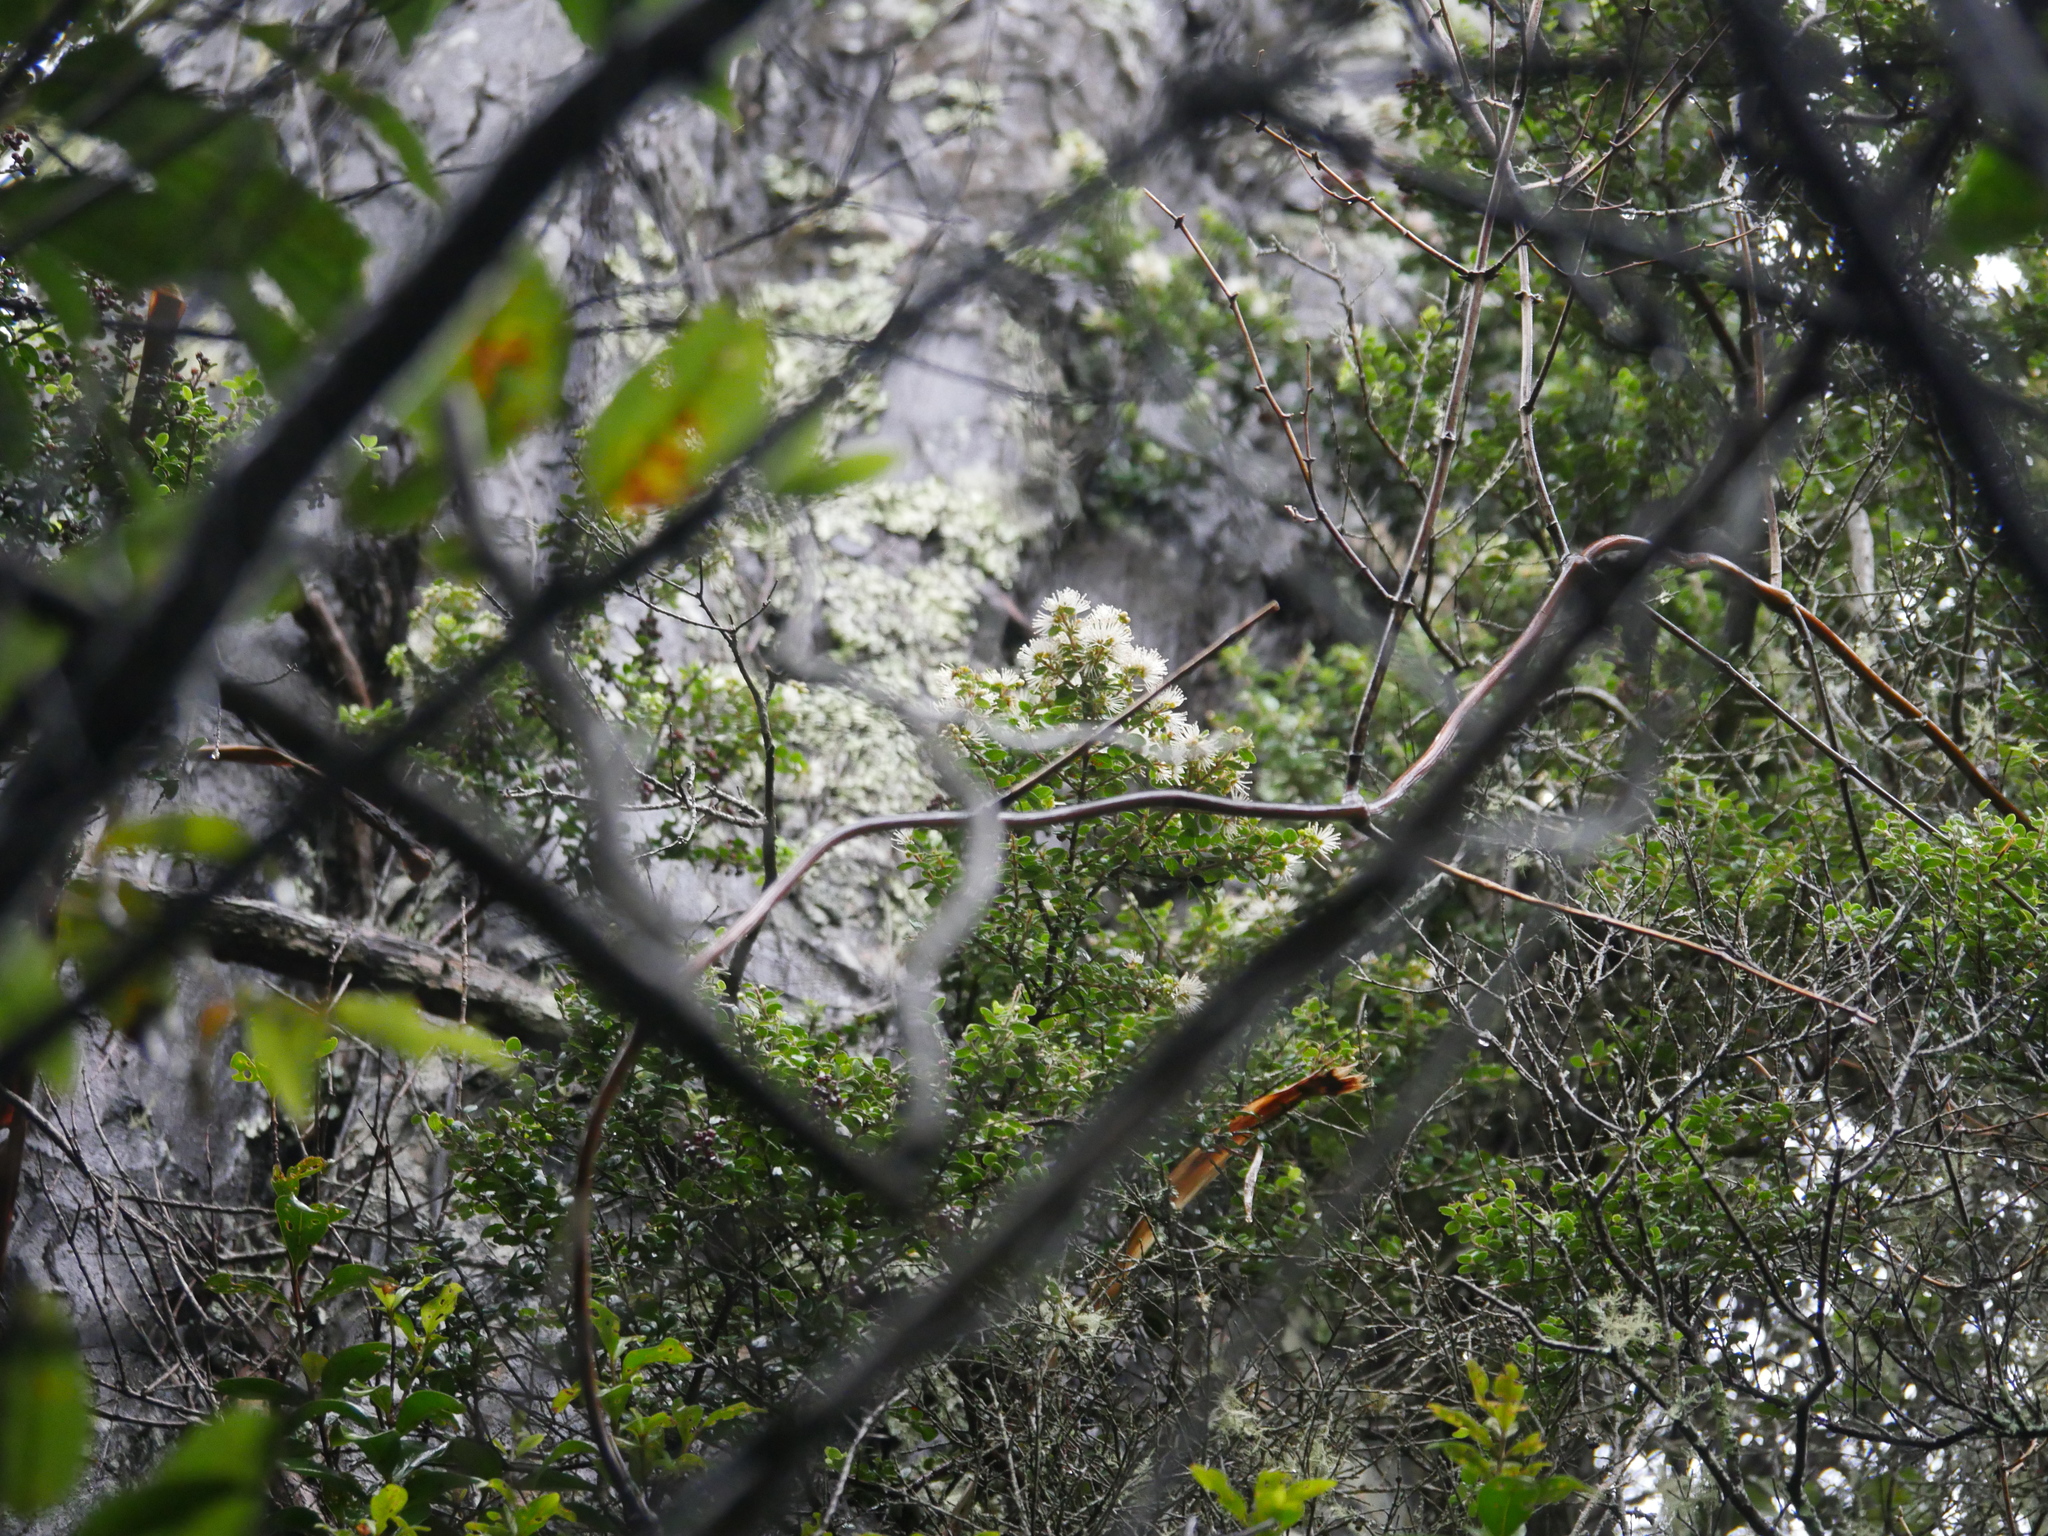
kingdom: Plantae
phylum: Tracheophyta
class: Magnoliopsida
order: Myrtales
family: Myrtaceae
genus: Metrosideros
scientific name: Metrosideros perforata
